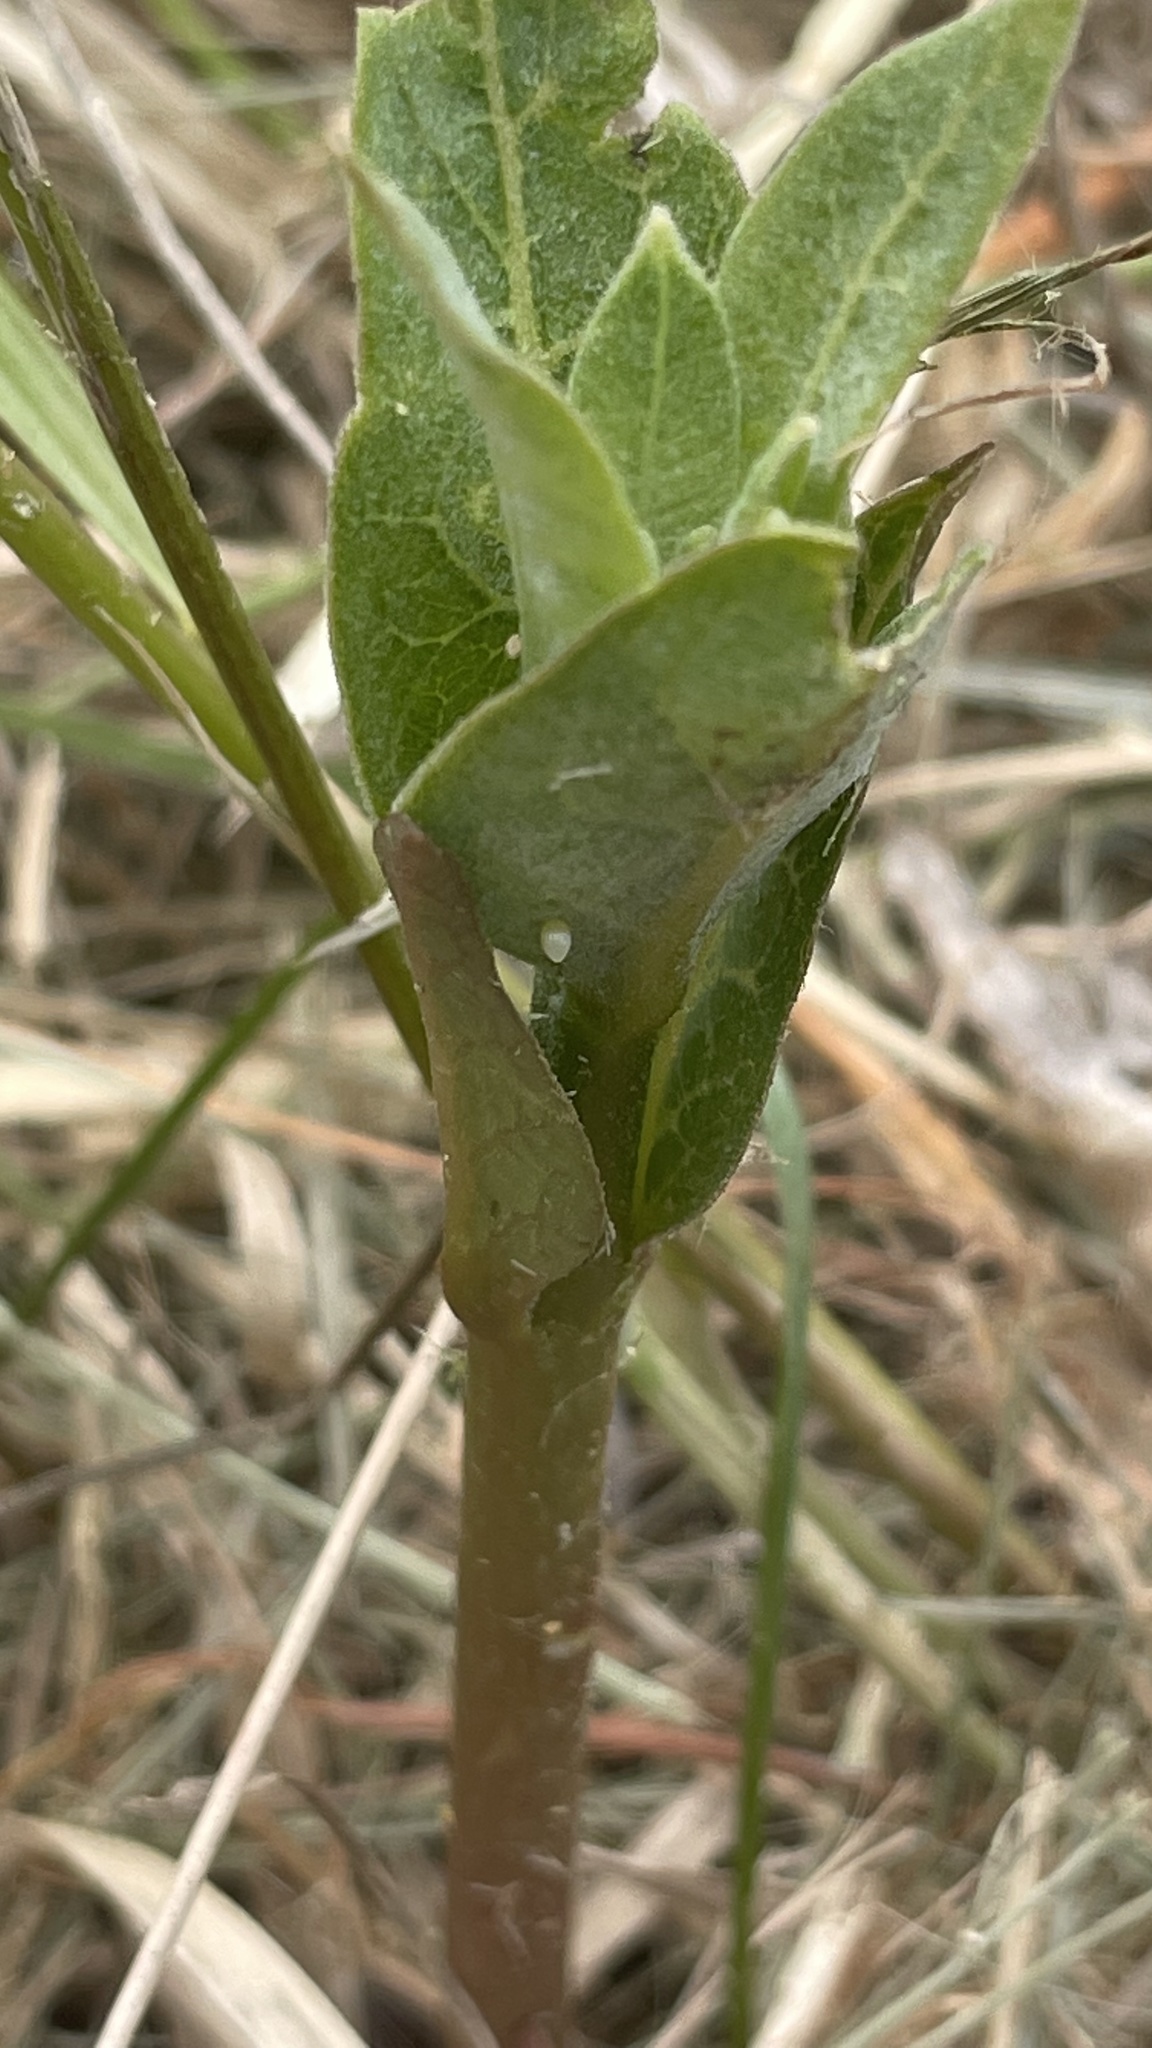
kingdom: Animalia
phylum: Arthropoda
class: Insecta
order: Lepidoptera
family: Nymphalidae
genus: Danaus
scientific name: Danaus plexippus
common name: Monarch
